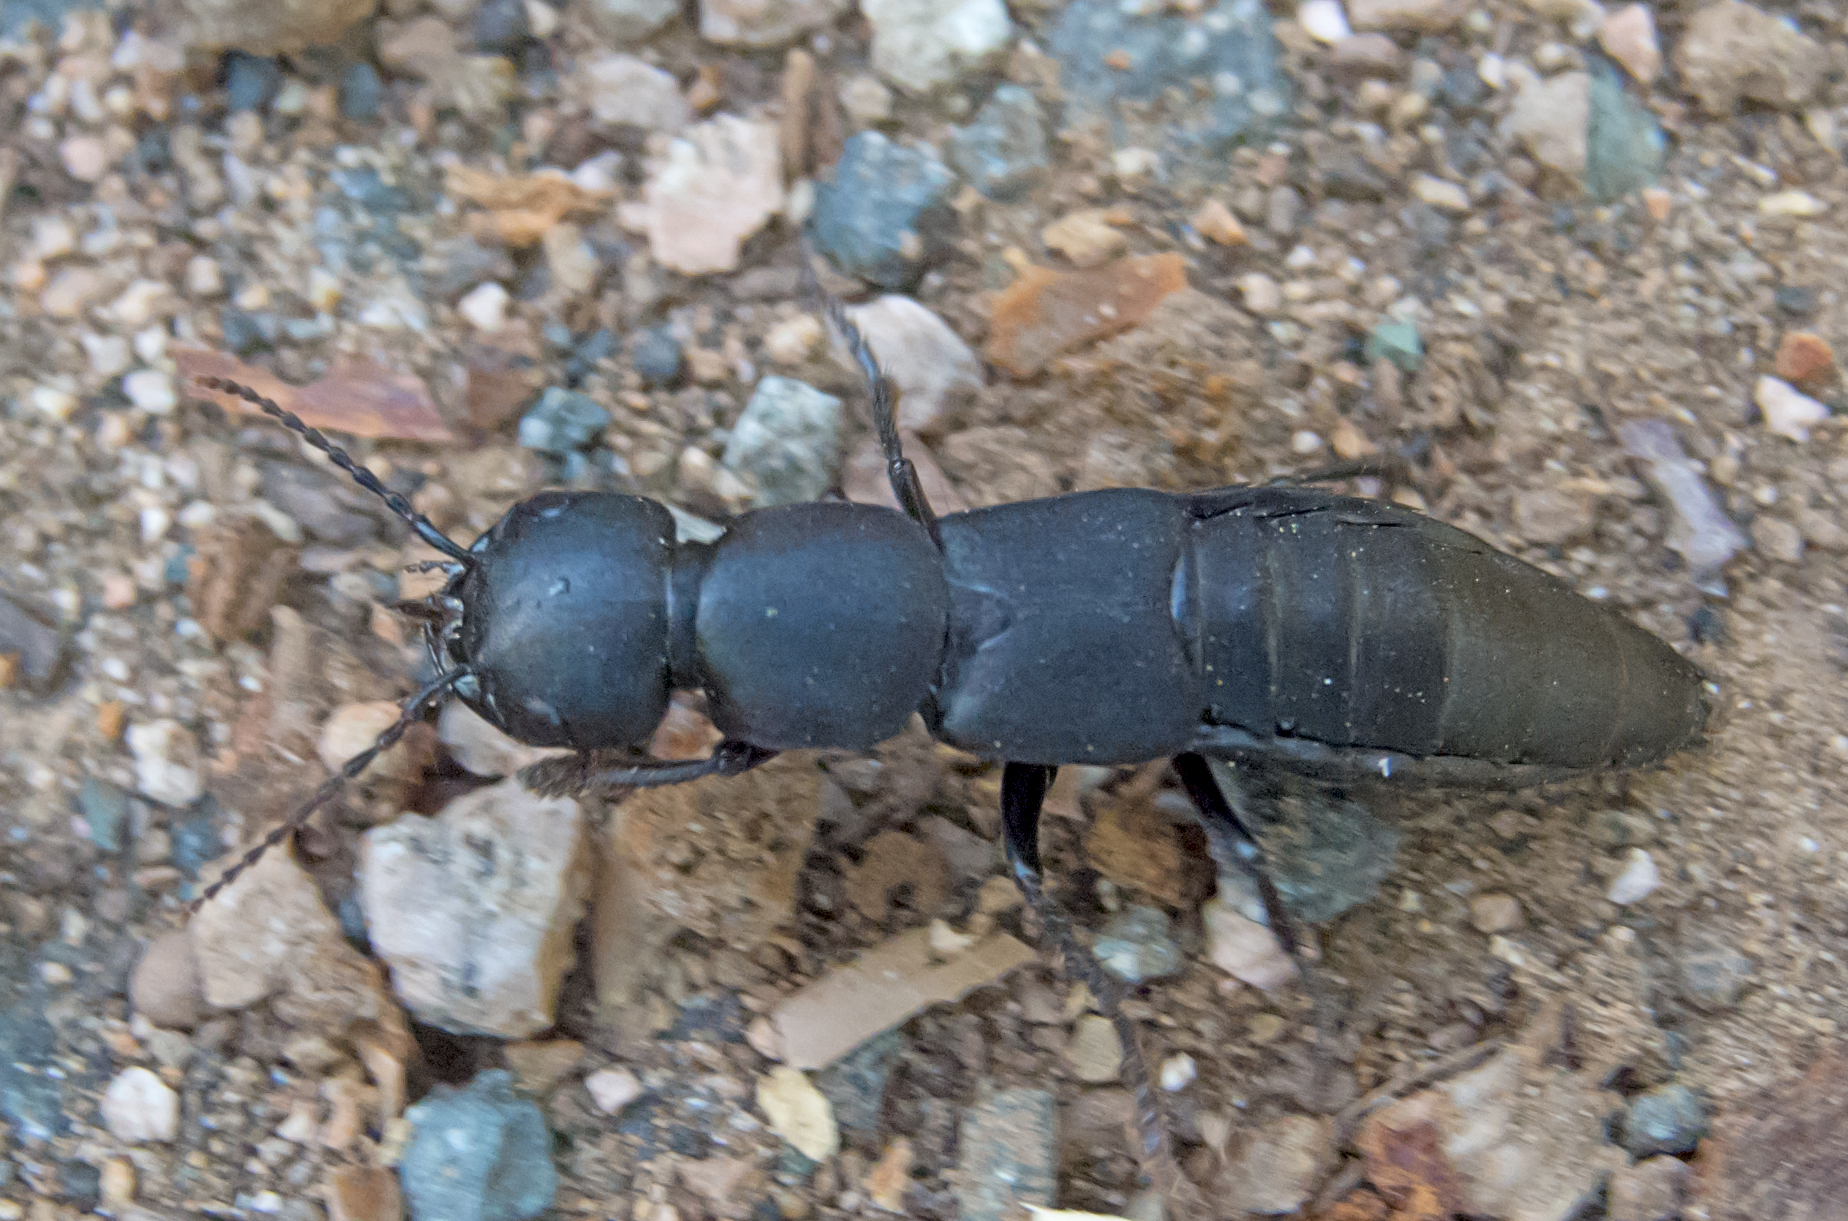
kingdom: Animalia
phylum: Arthropoda
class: Insecta
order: Coleoptera
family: Staphylinidae
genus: Ocypus
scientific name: Ocypus olens
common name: Devil's coach-horse
